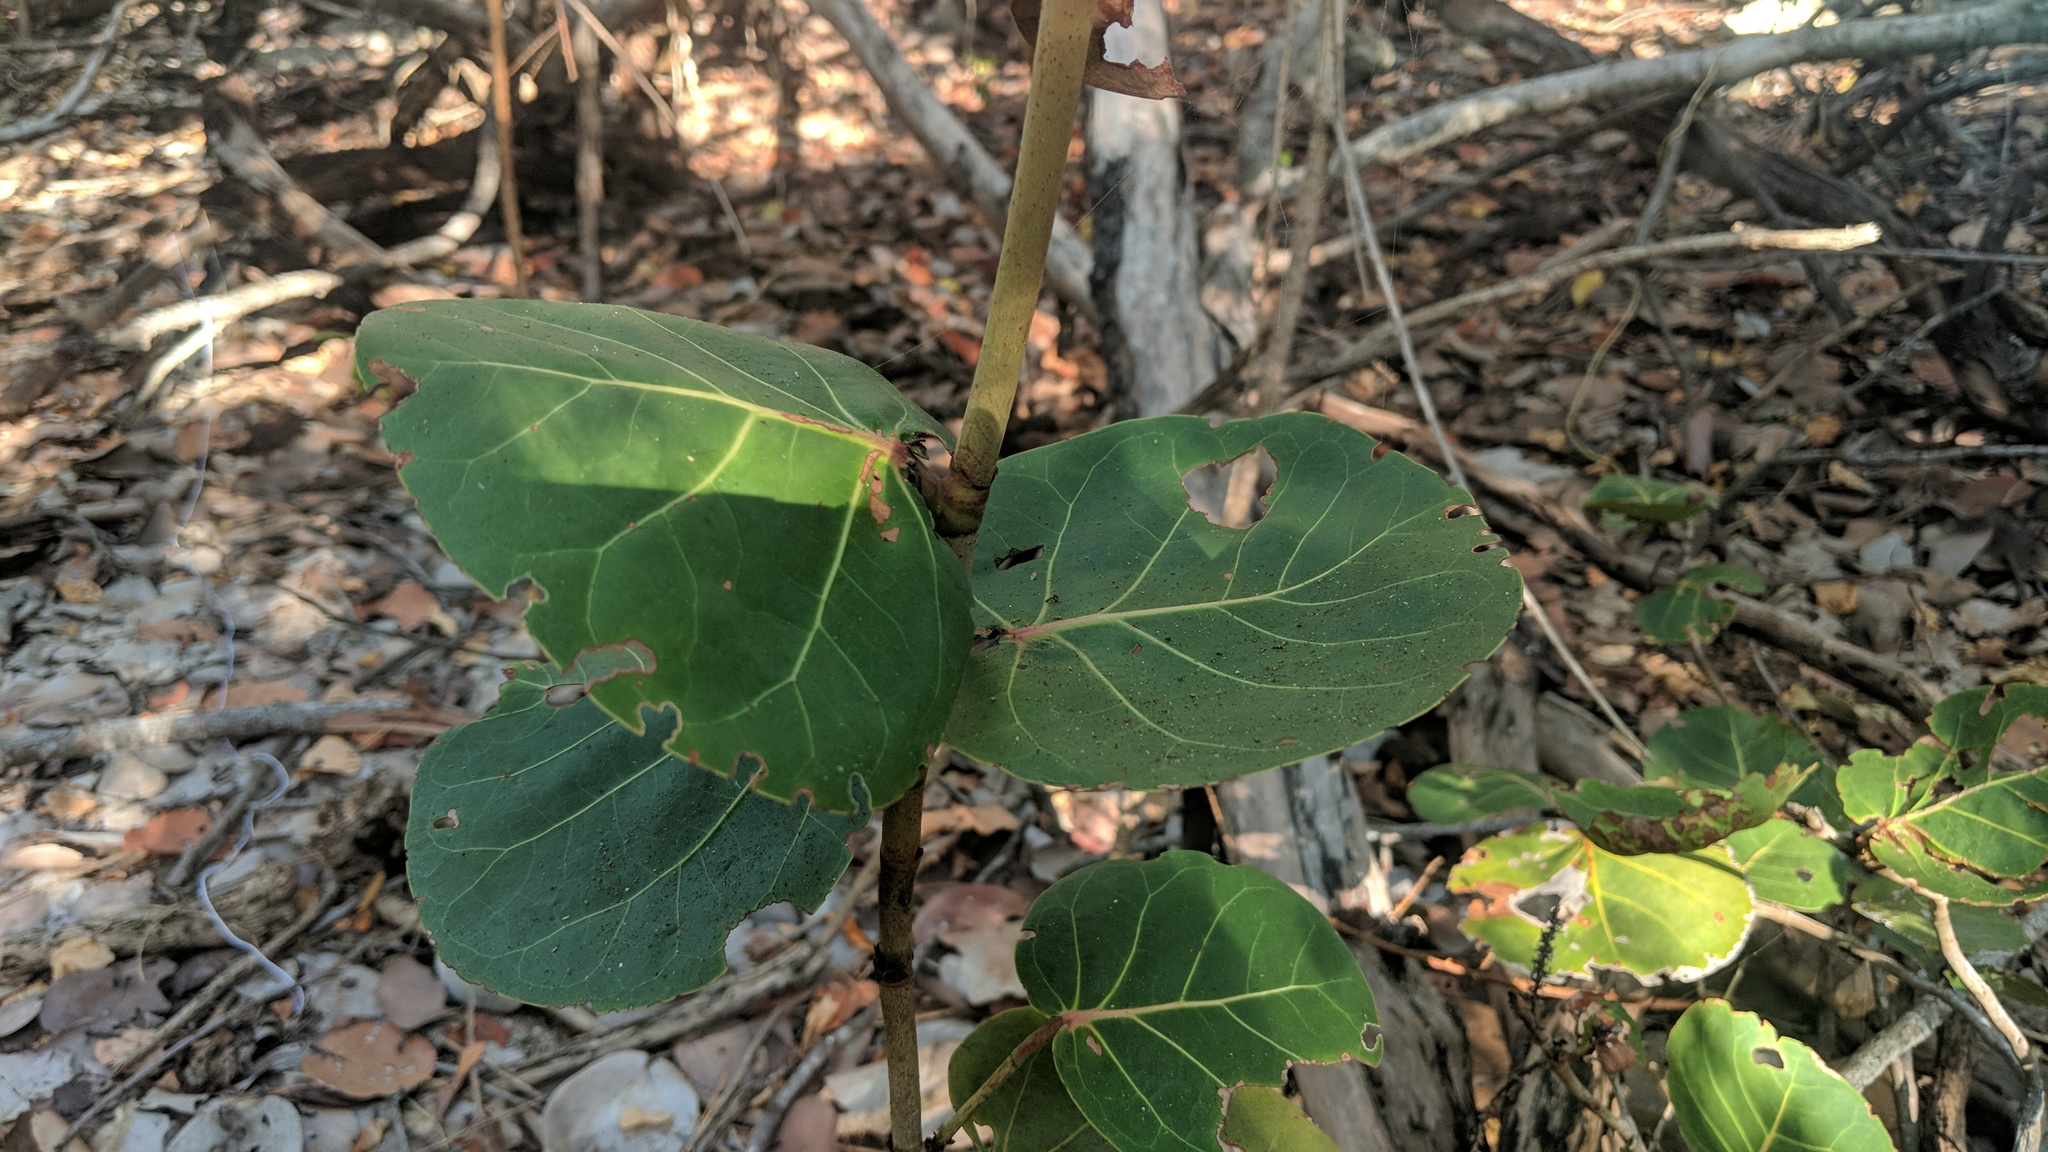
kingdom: Plantae
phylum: Tracheophyta
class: Magnoliopsida
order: Caryophyllales
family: Polygonaceae
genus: Coccoloba
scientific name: Coccoloba uvifera
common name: Seagrape
